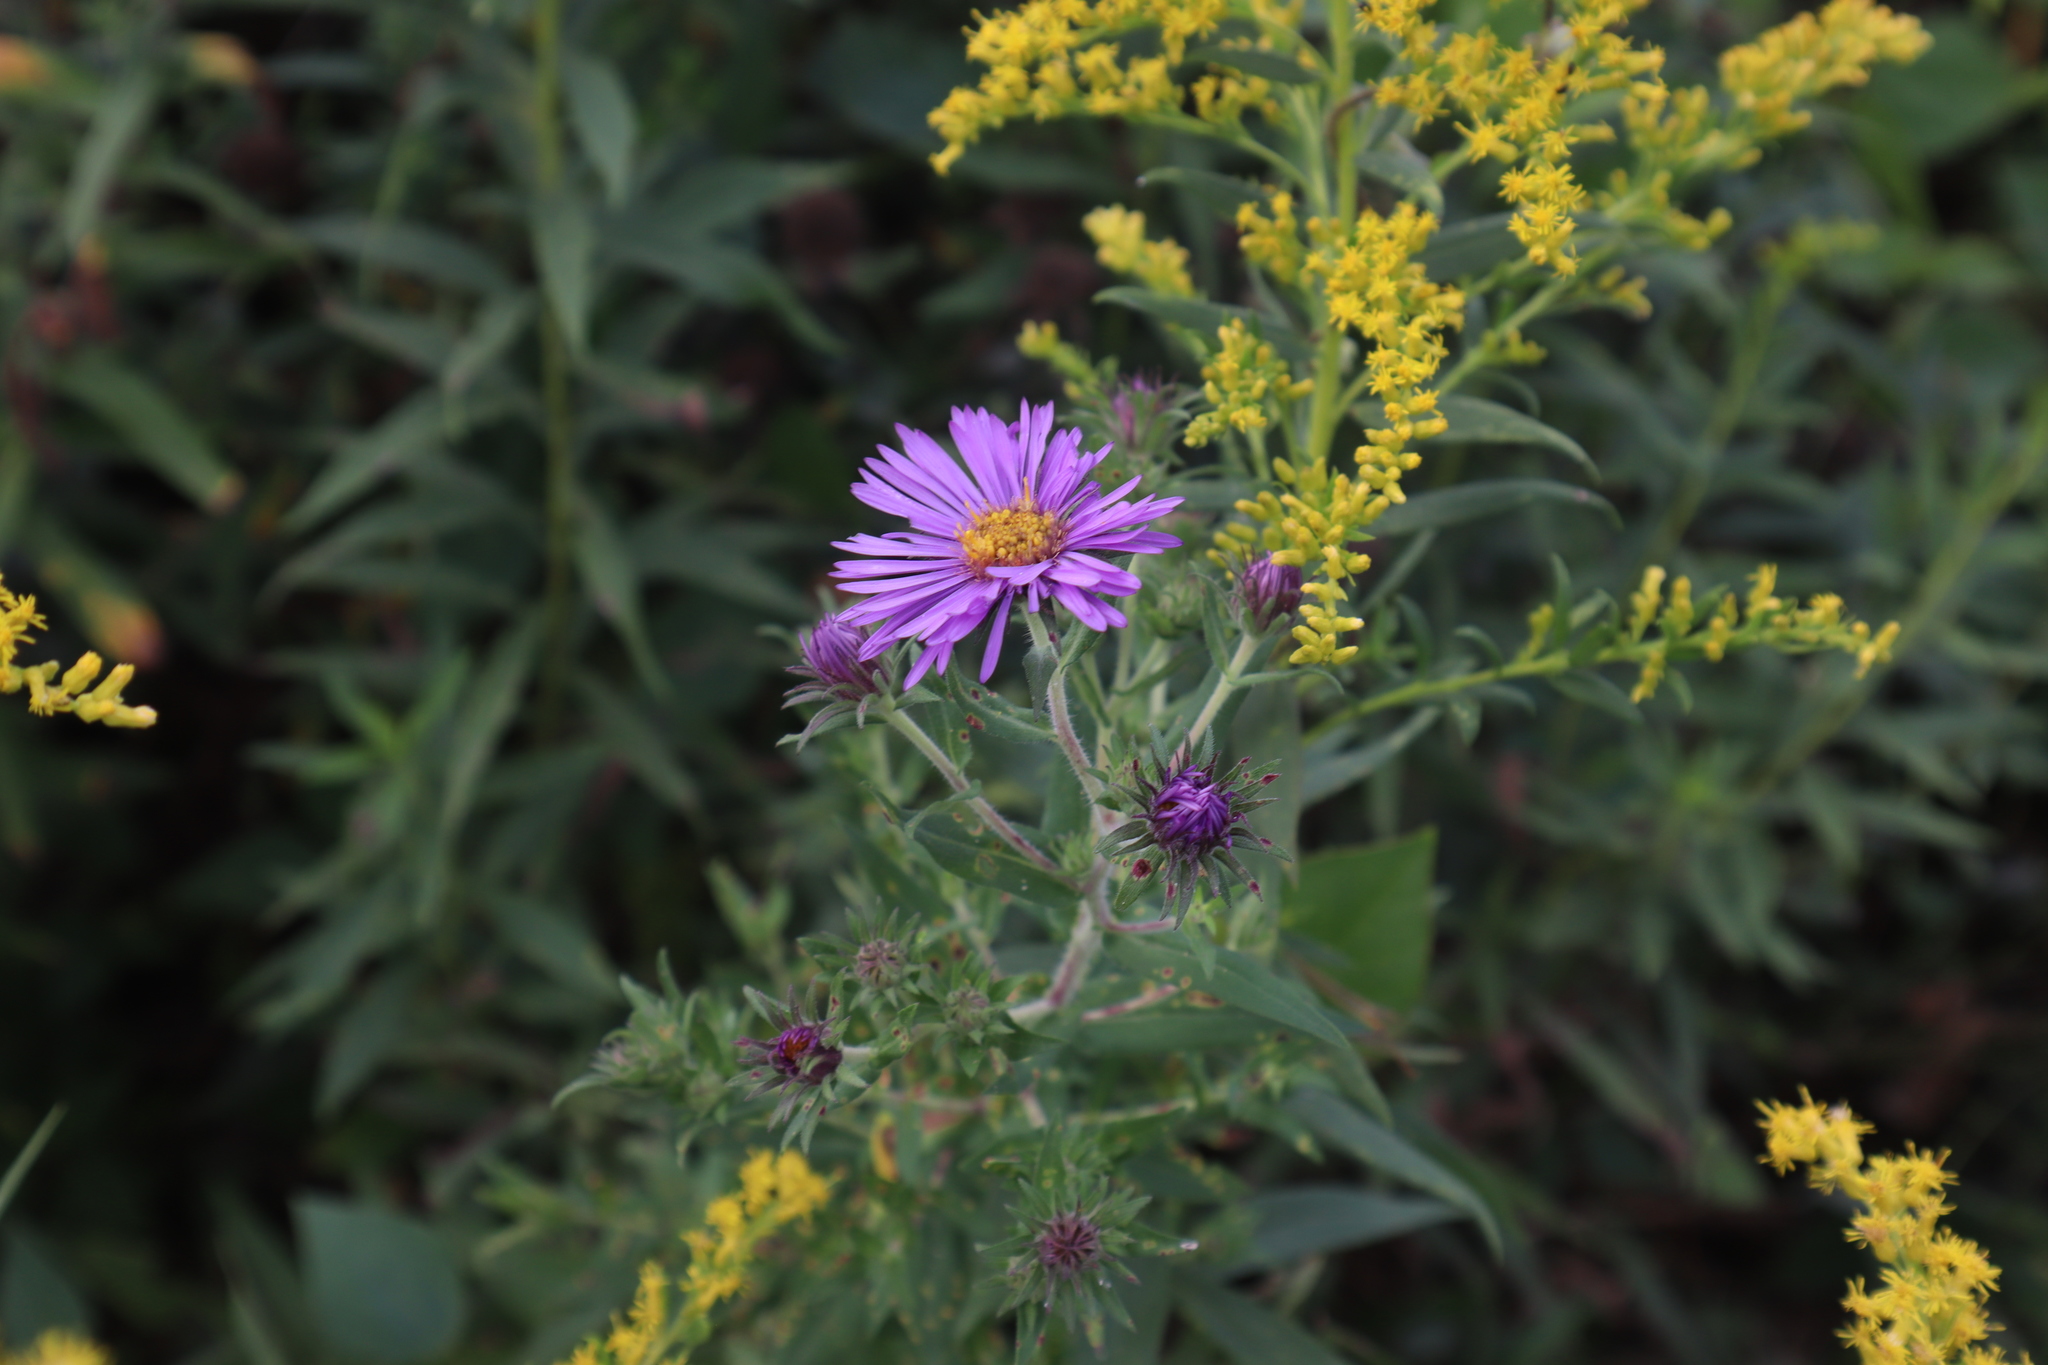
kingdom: Plantae
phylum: Tracheophyta
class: Magnoliopsida
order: Asterales
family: Asteraceae
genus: Symphyotrichum
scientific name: Symphyotrichum novae-angliae
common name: Michaelmas daisy
